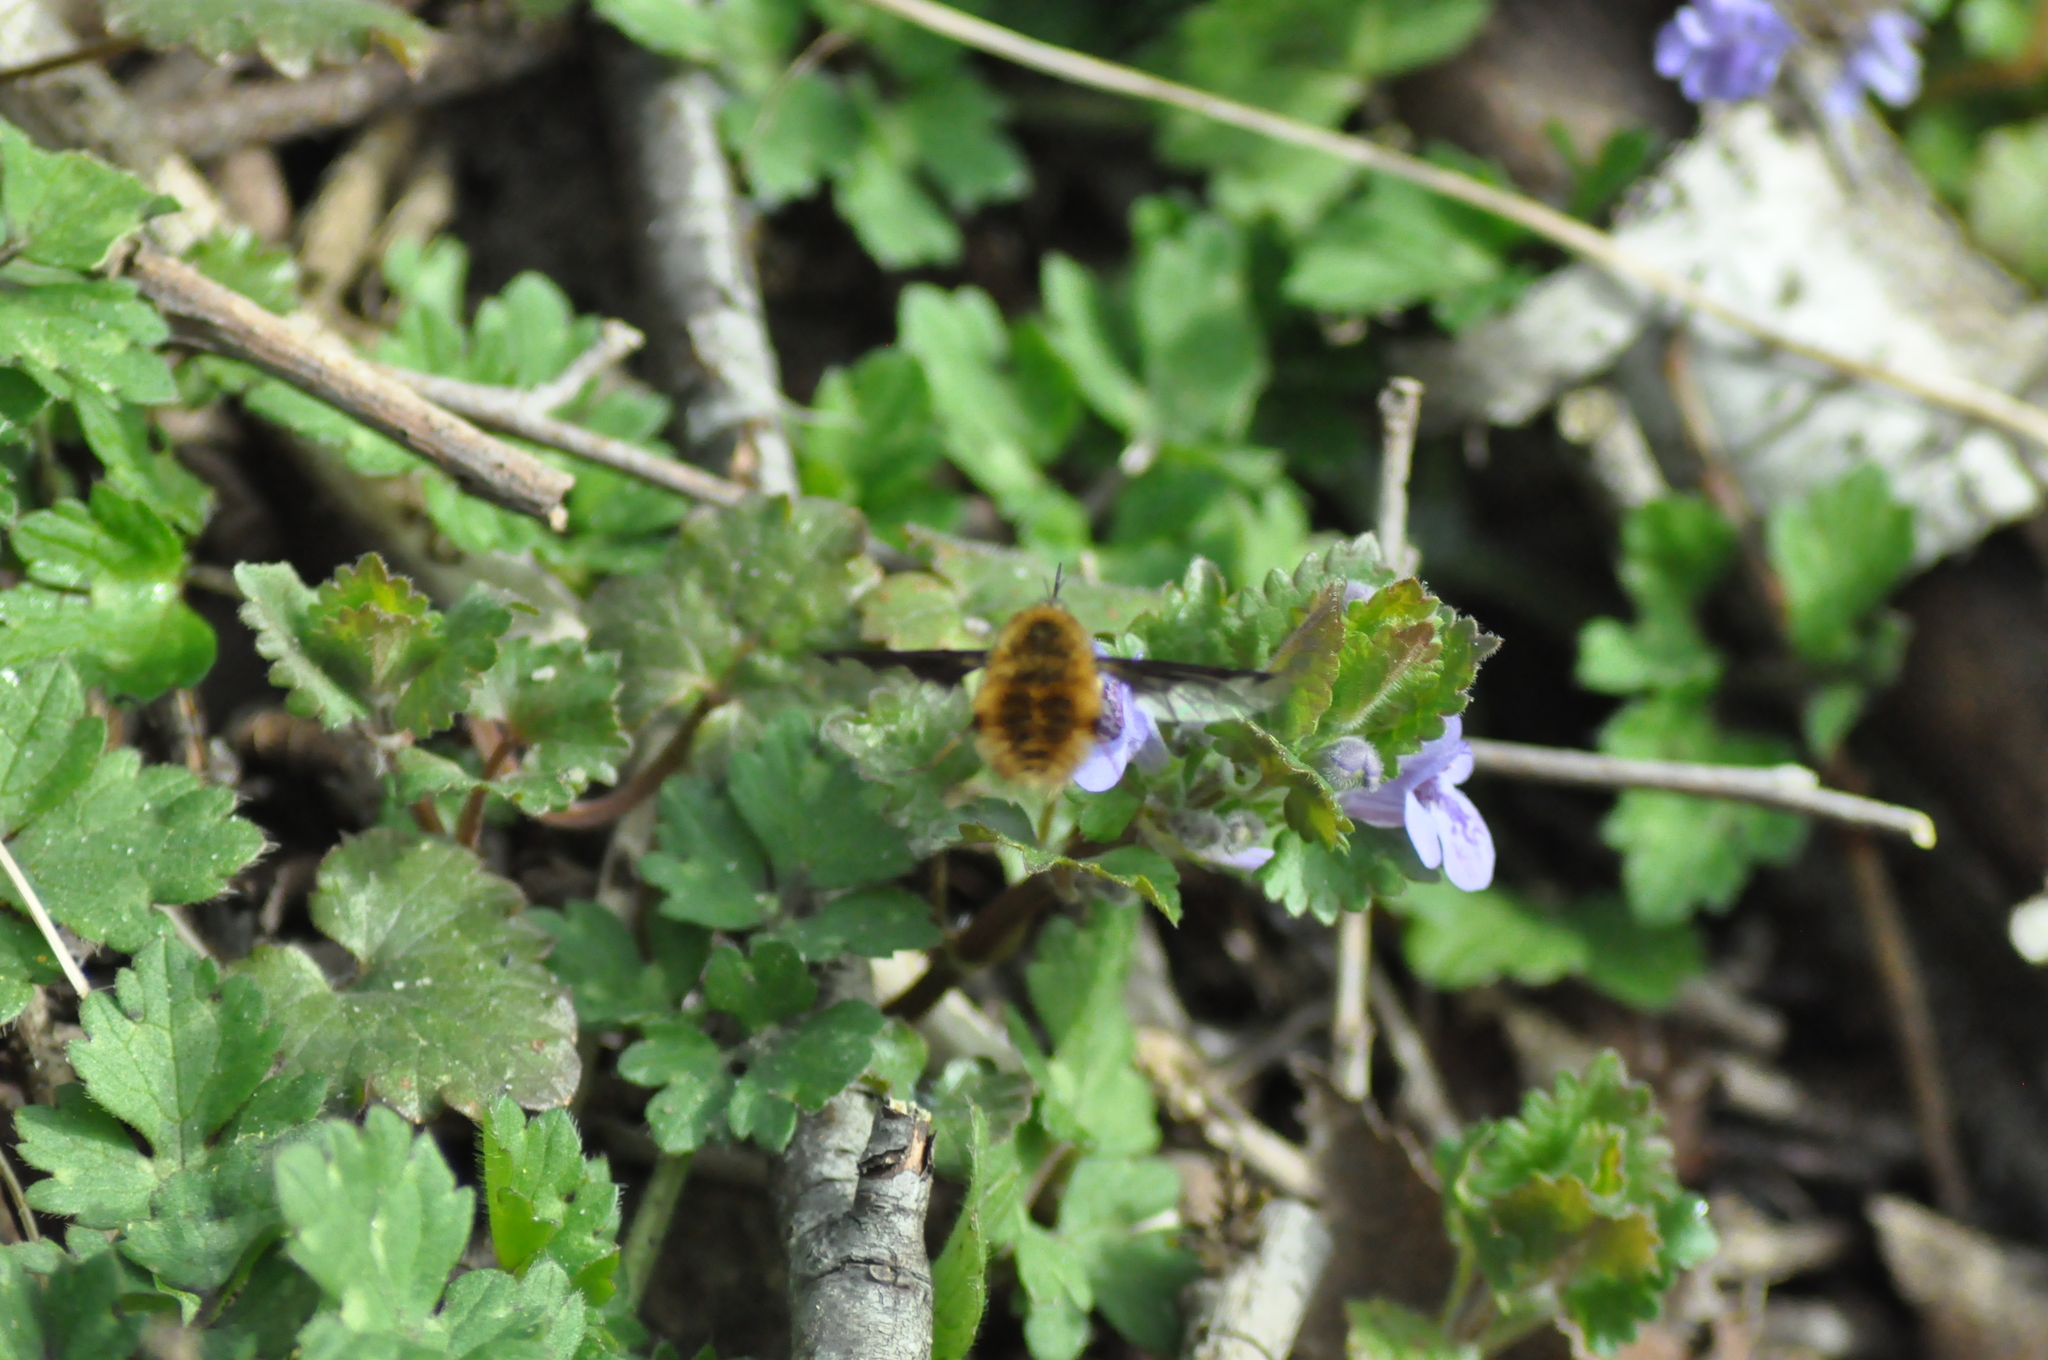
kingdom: Animalia
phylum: Arthropoda
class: Insecta
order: Diptera
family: Bombyliidae
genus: Bombylius
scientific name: Bombylius major
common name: Bee fly
